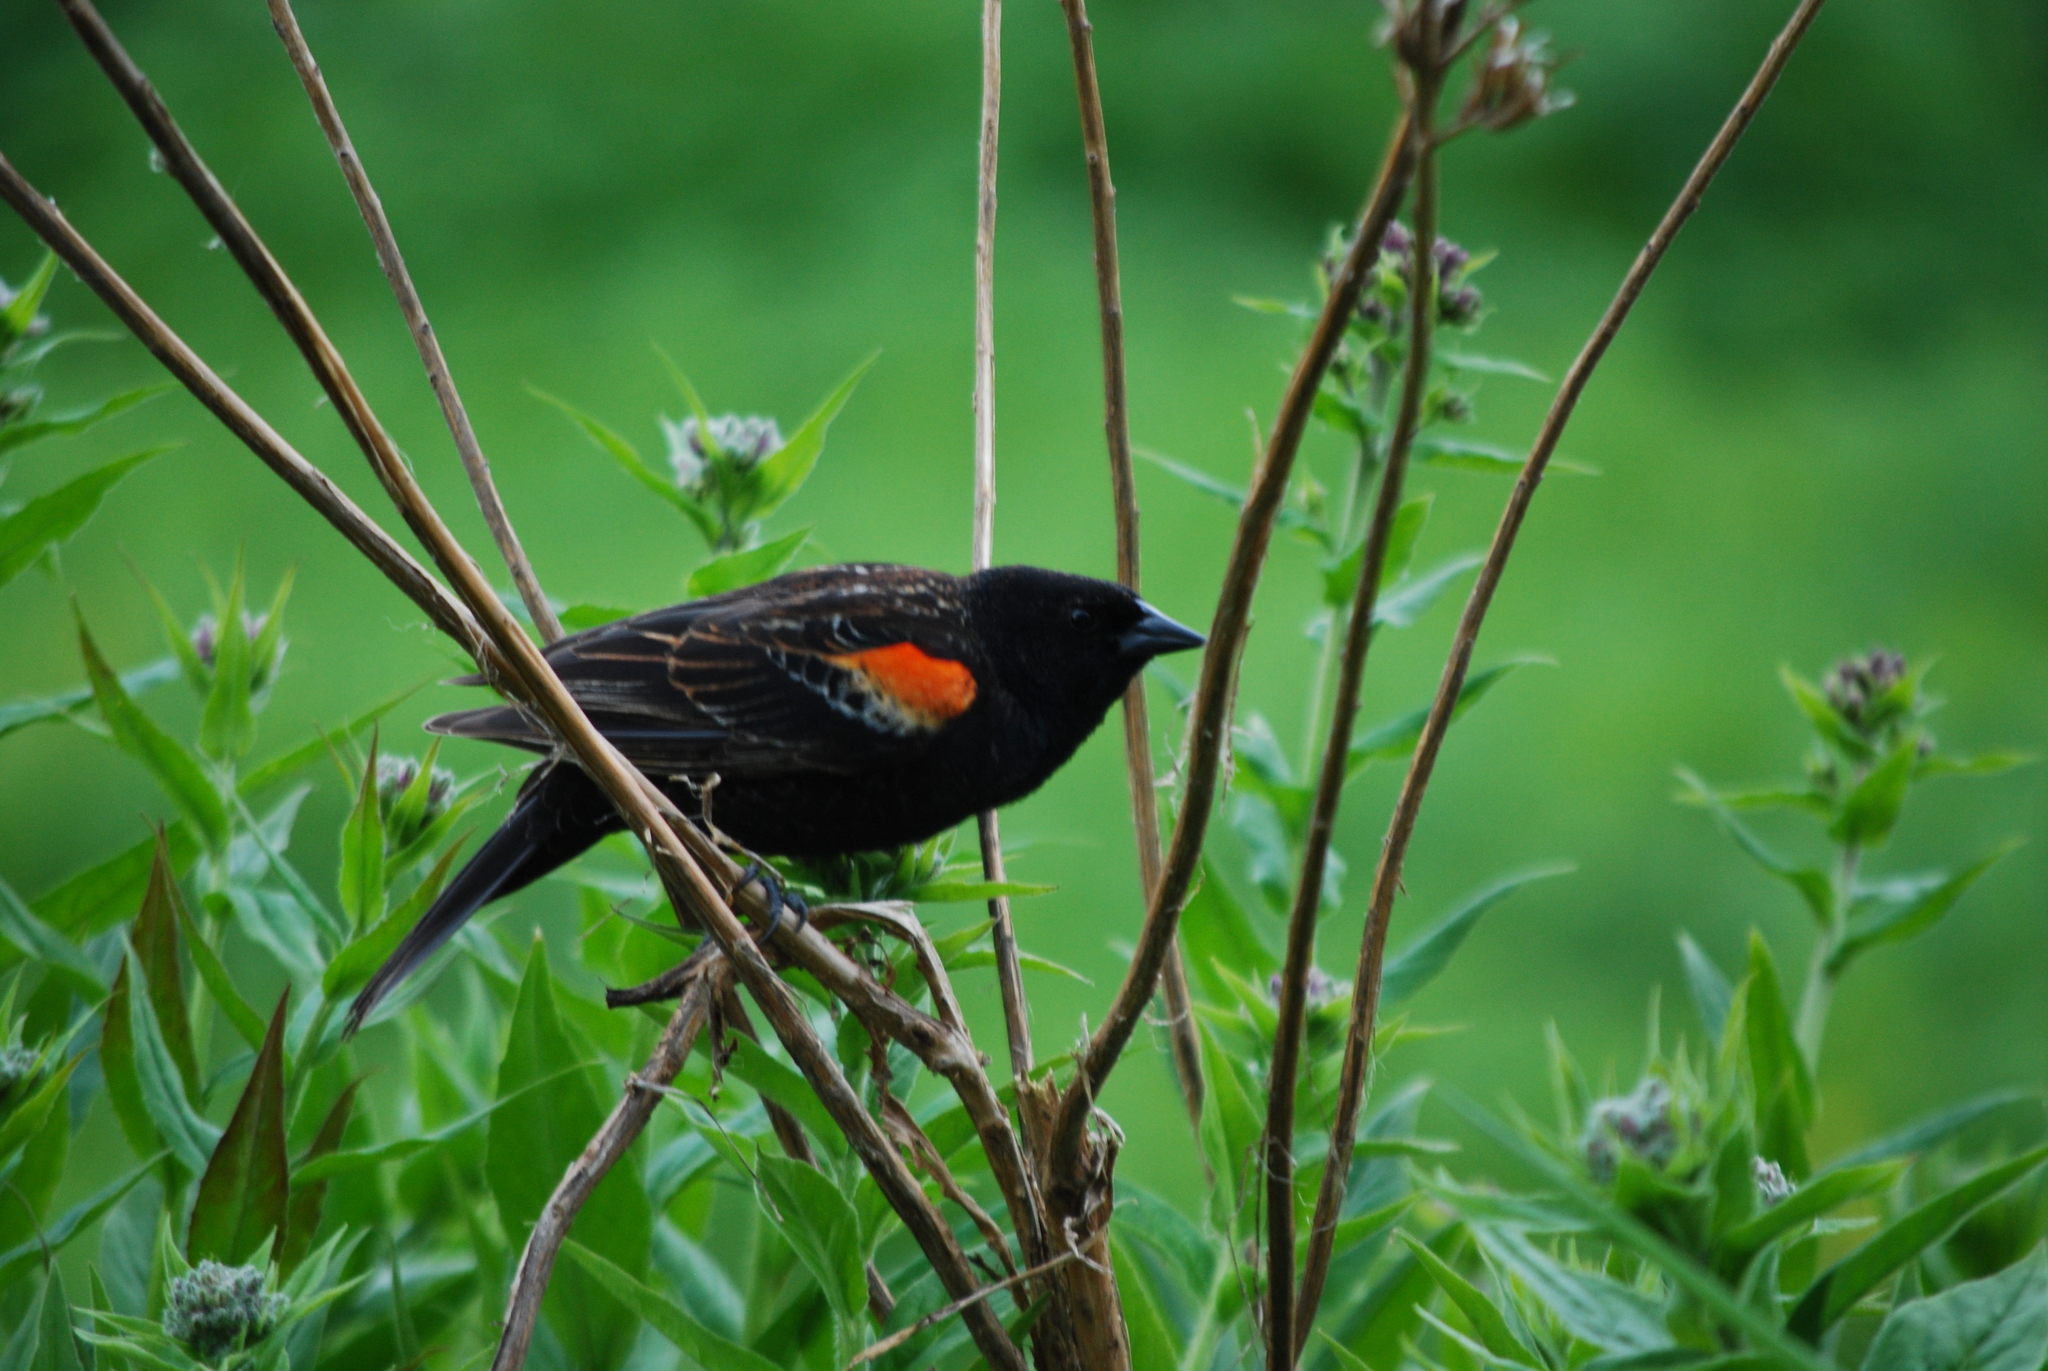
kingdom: Animalia
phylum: Chordata
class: Aves
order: Passeriformes
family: Icteridae
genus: Agelaius
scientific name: Agelaius phoeniceus
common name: Red-winged blackbird
